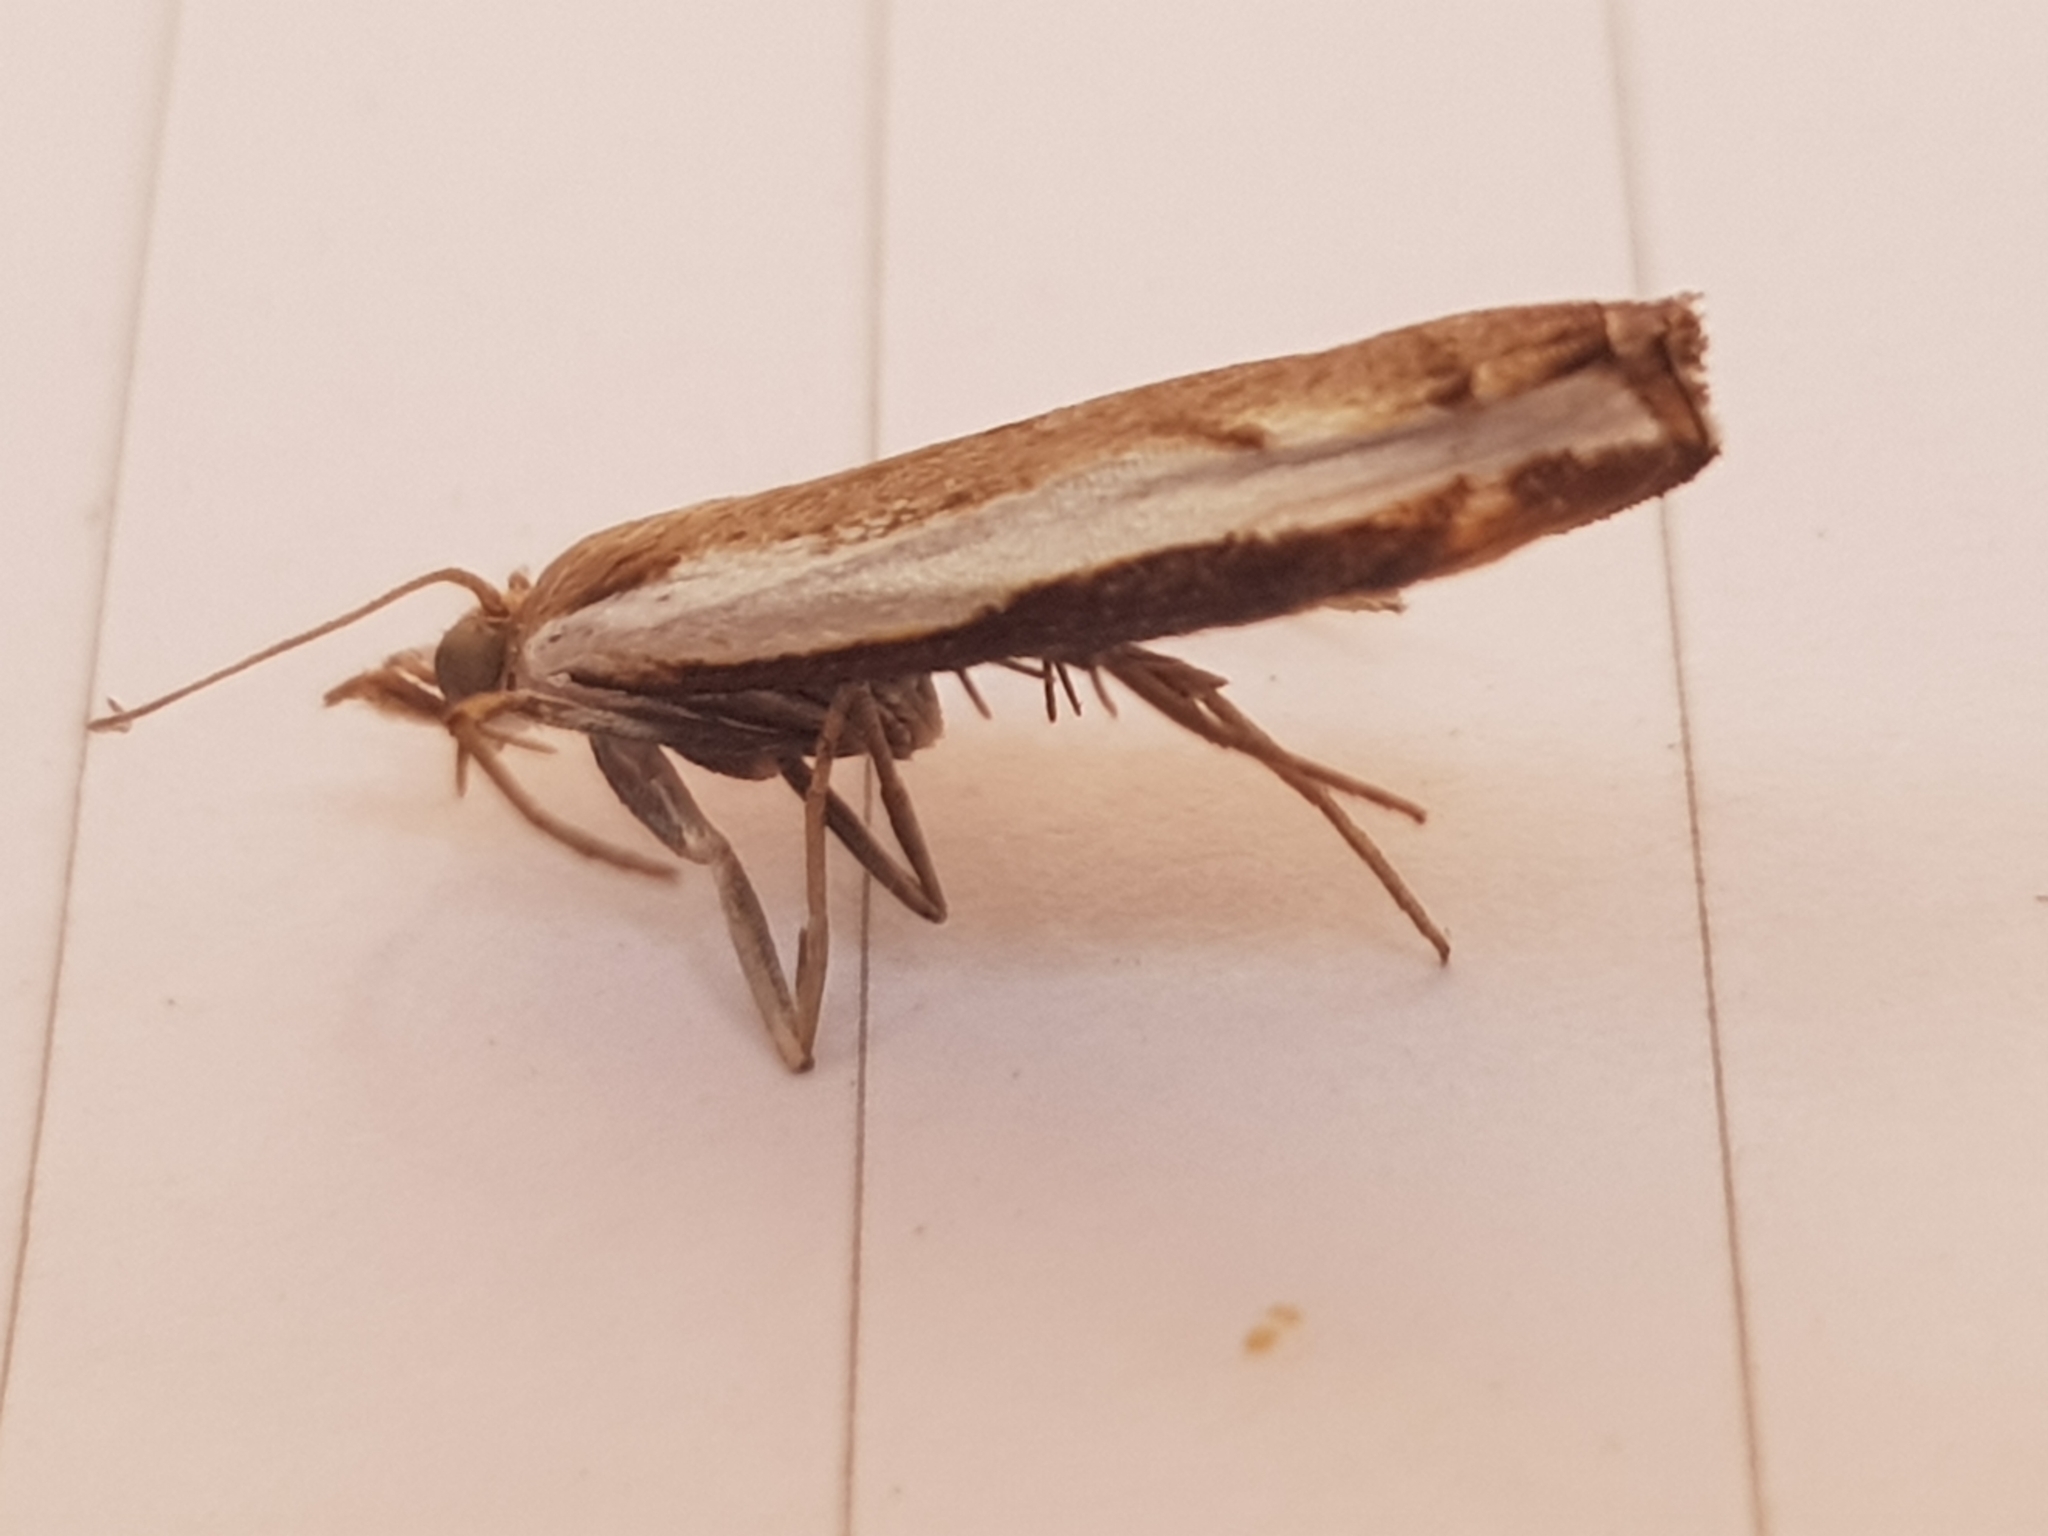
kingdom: Animalia
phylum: Arthropoda
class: Insecta
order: Lepidoptera
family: Crambidae
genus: Orocrambus
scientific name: Orocrambus flexuosellus
